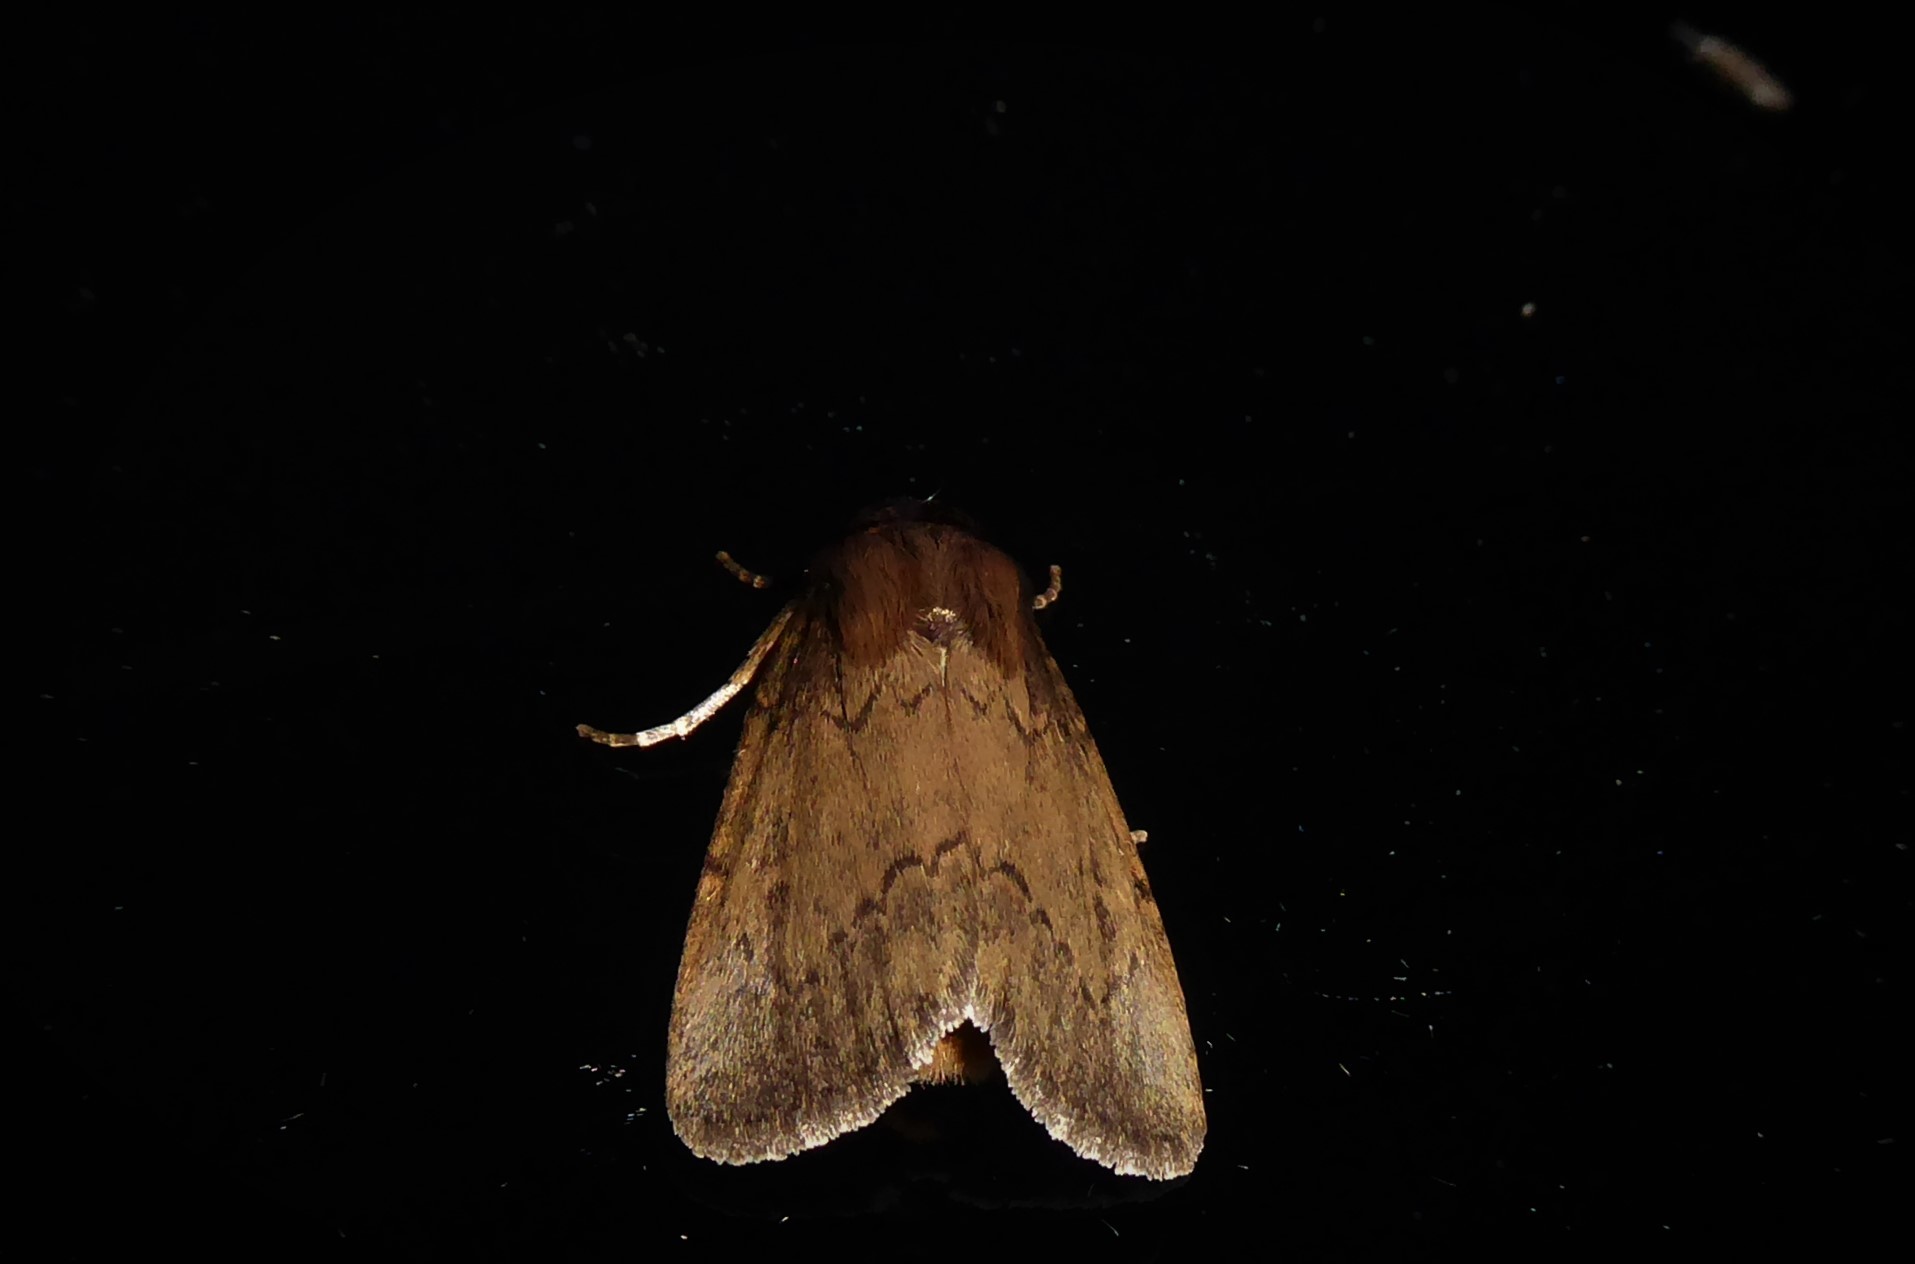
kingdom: Animalia
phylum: Arthropoda
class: Insecta
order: Lepidoptera
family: Noctuidae
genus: Bityla
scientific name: Bityla defigurata
